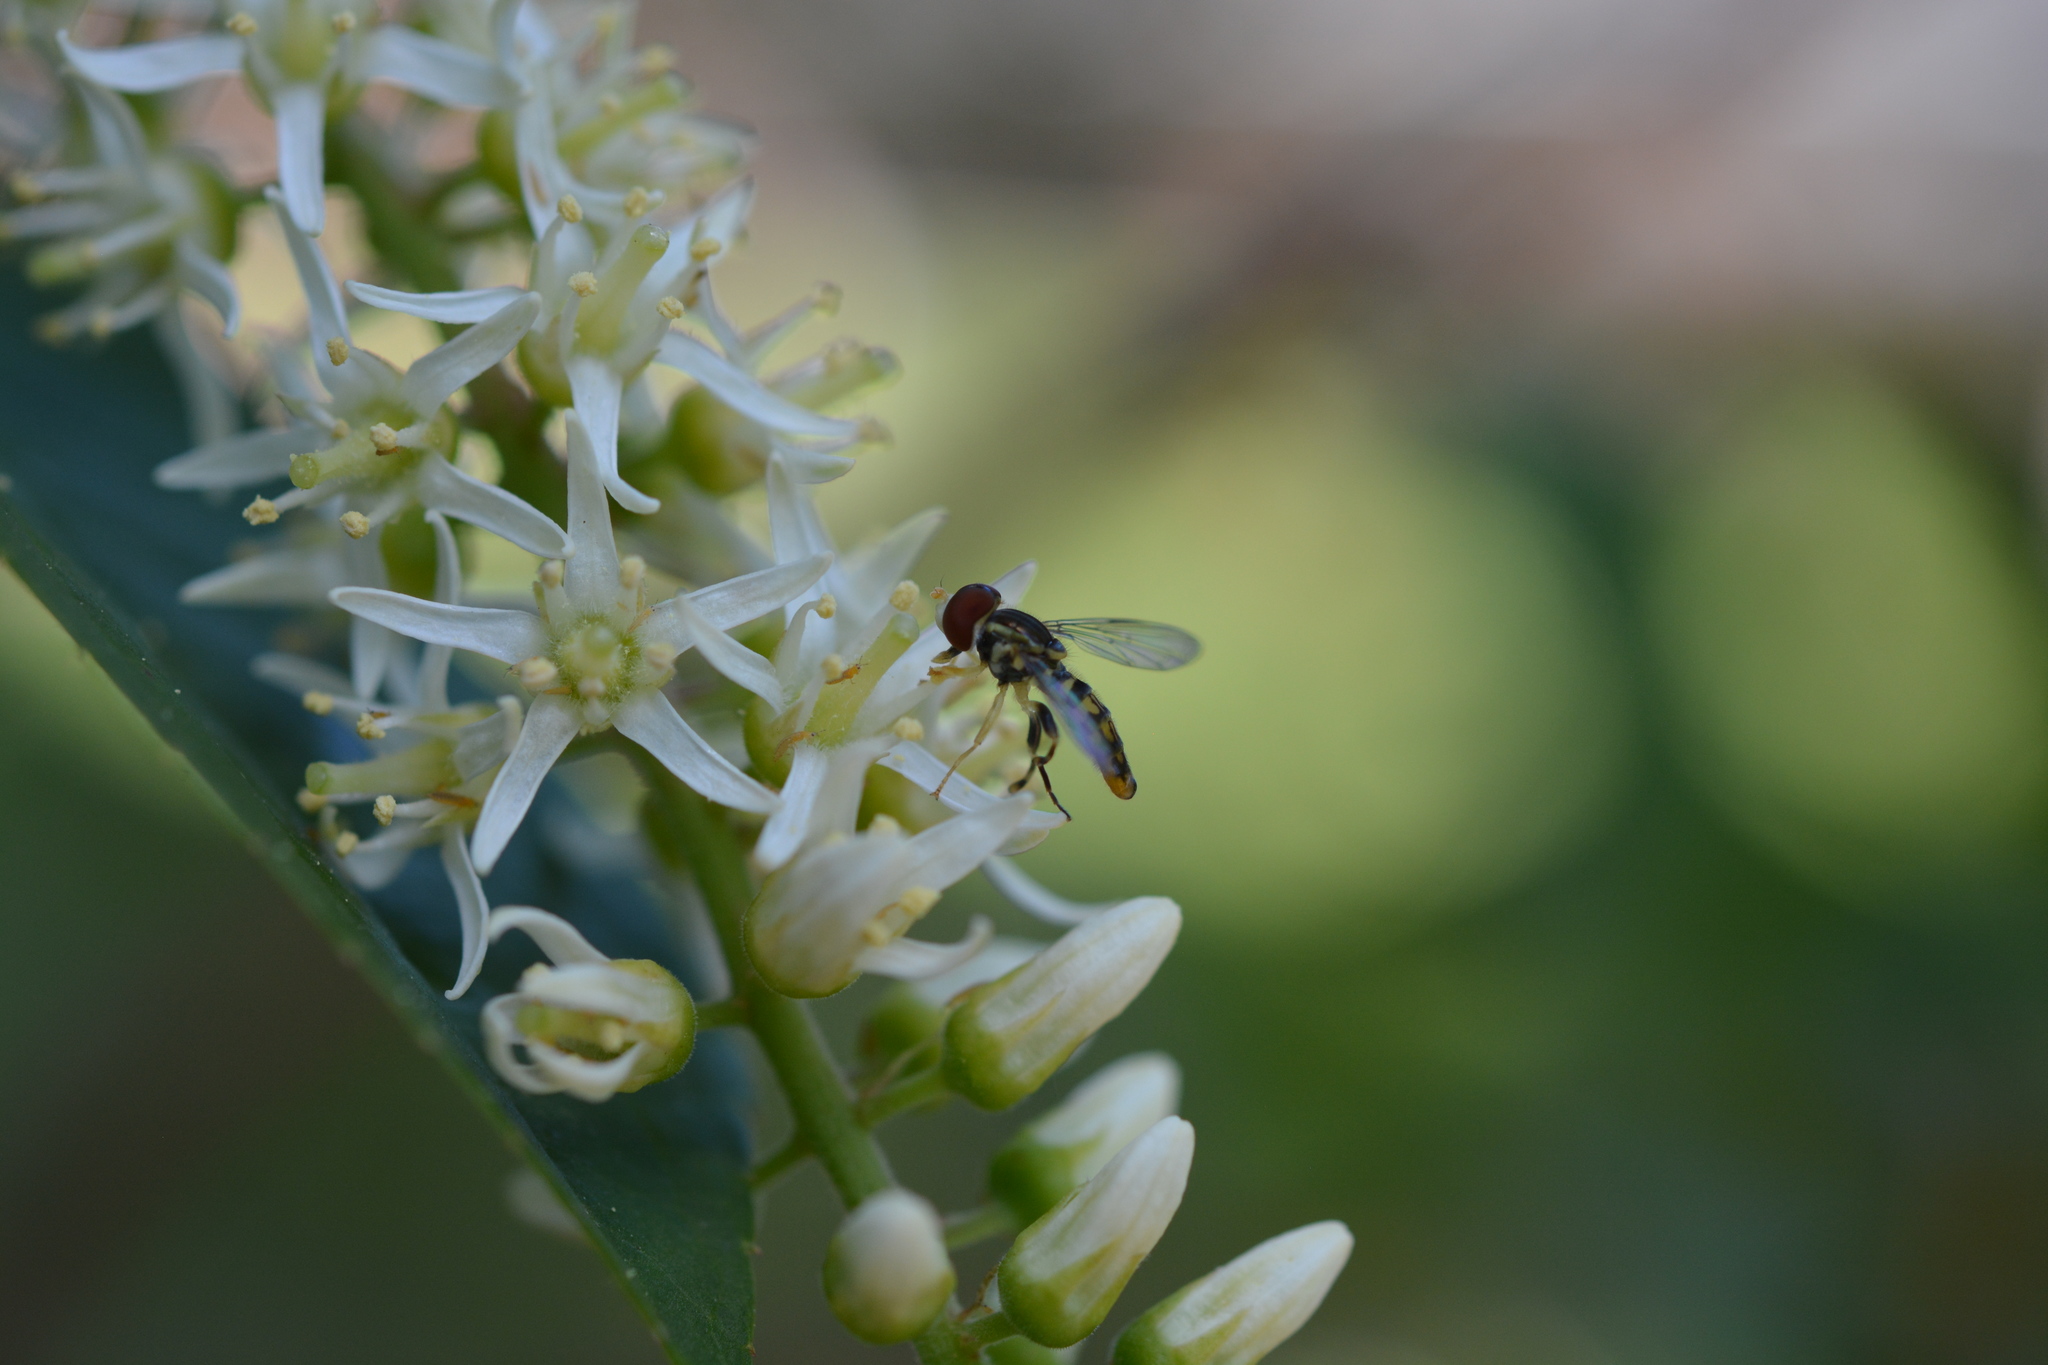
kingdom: Animalia
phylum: Arthropoda
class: Insecta
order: Diptera
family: Syrphidae
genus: Toxomerus
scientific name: Toxomerus geminatus
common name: Eastern calligrapher
